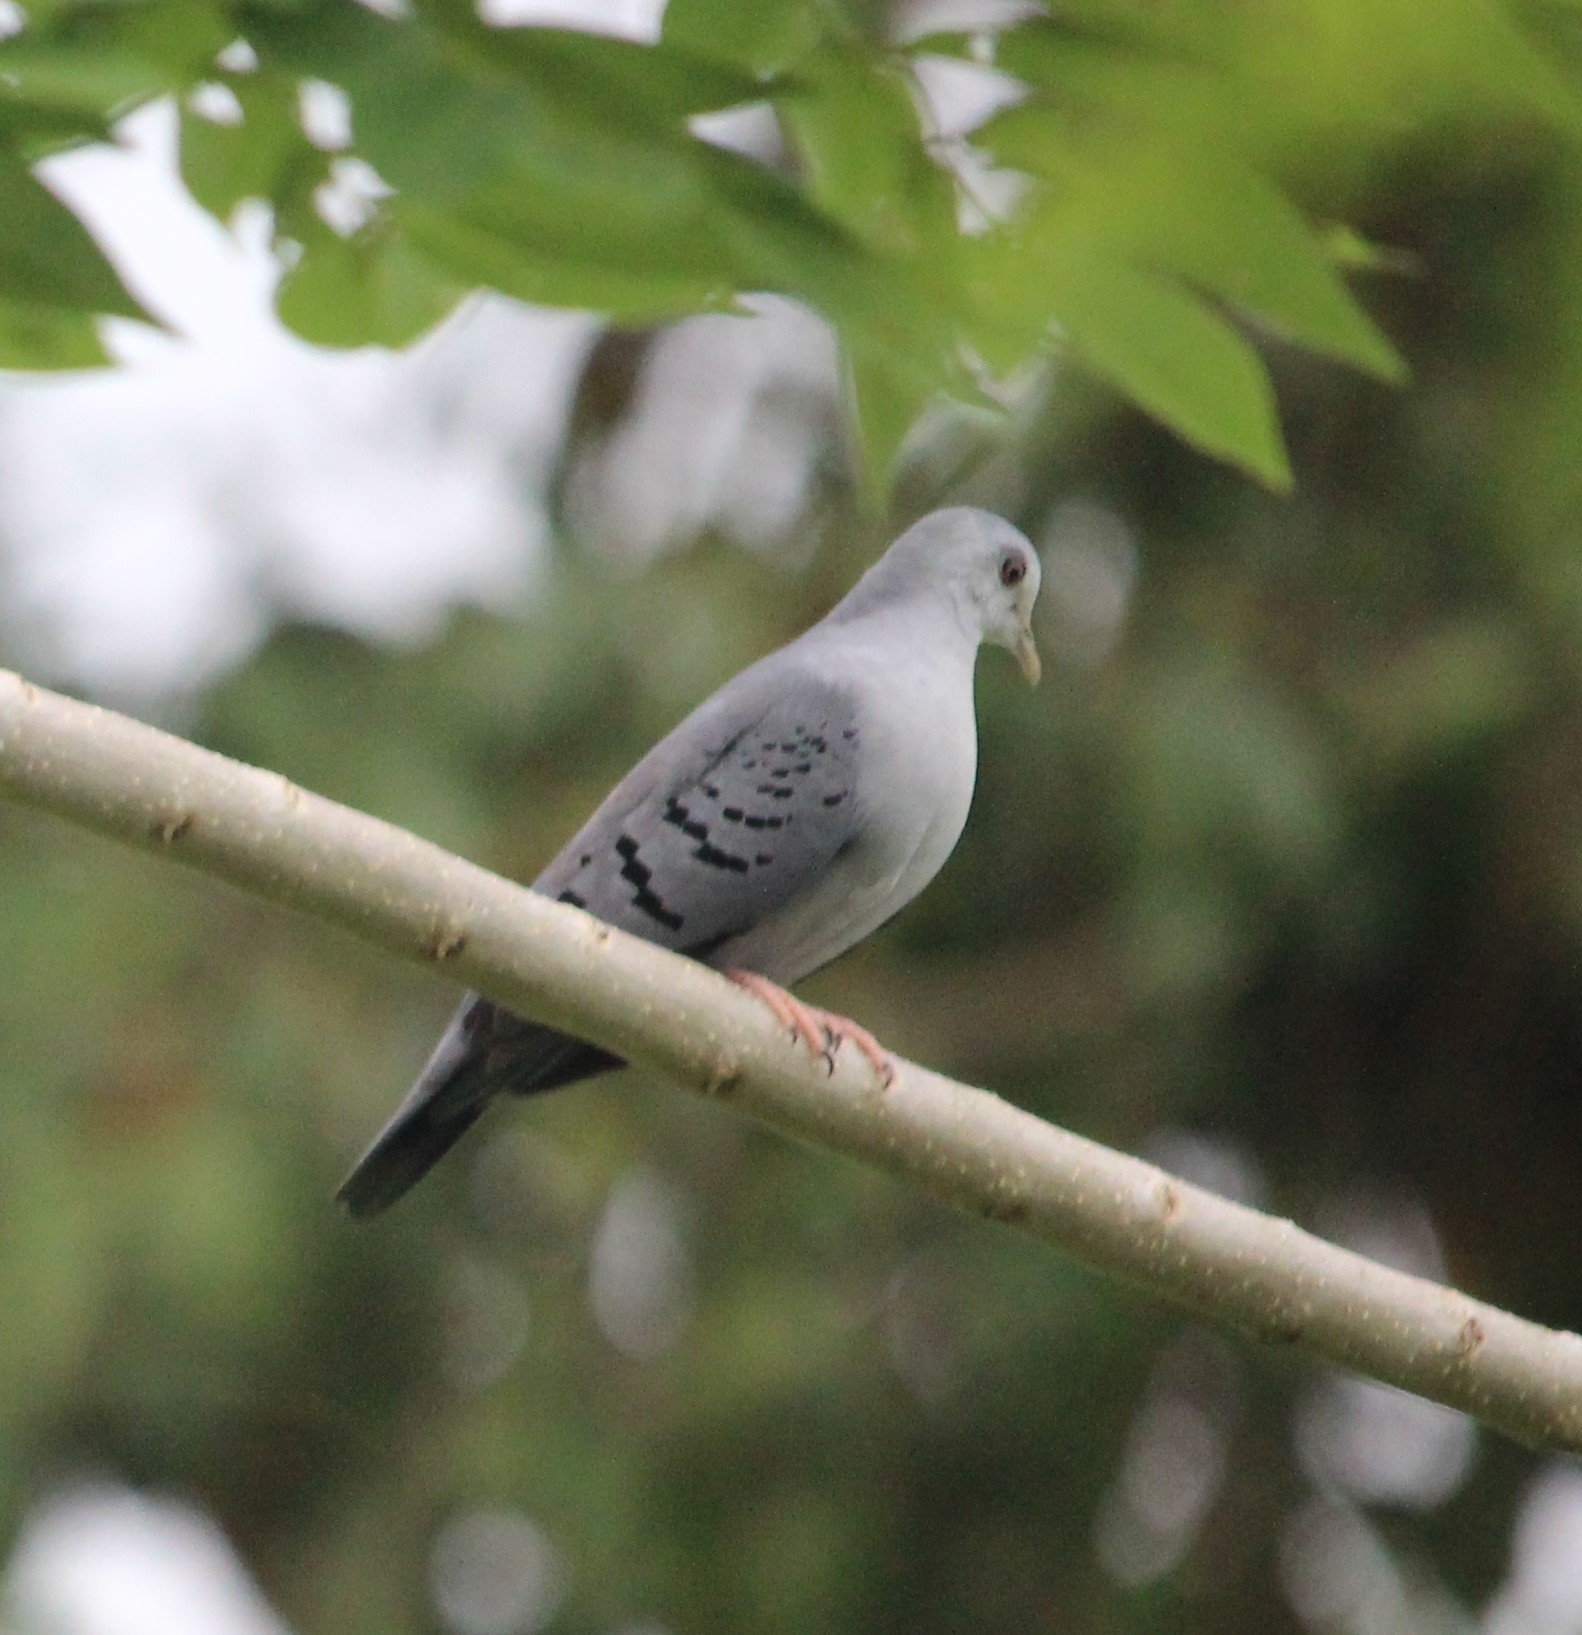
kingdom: Animalia
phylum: Chordata
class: Aves
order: Columbiformes
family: Columbidae
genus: Claravis
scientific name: Claravis pretiosa
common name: Blue ground-dove
